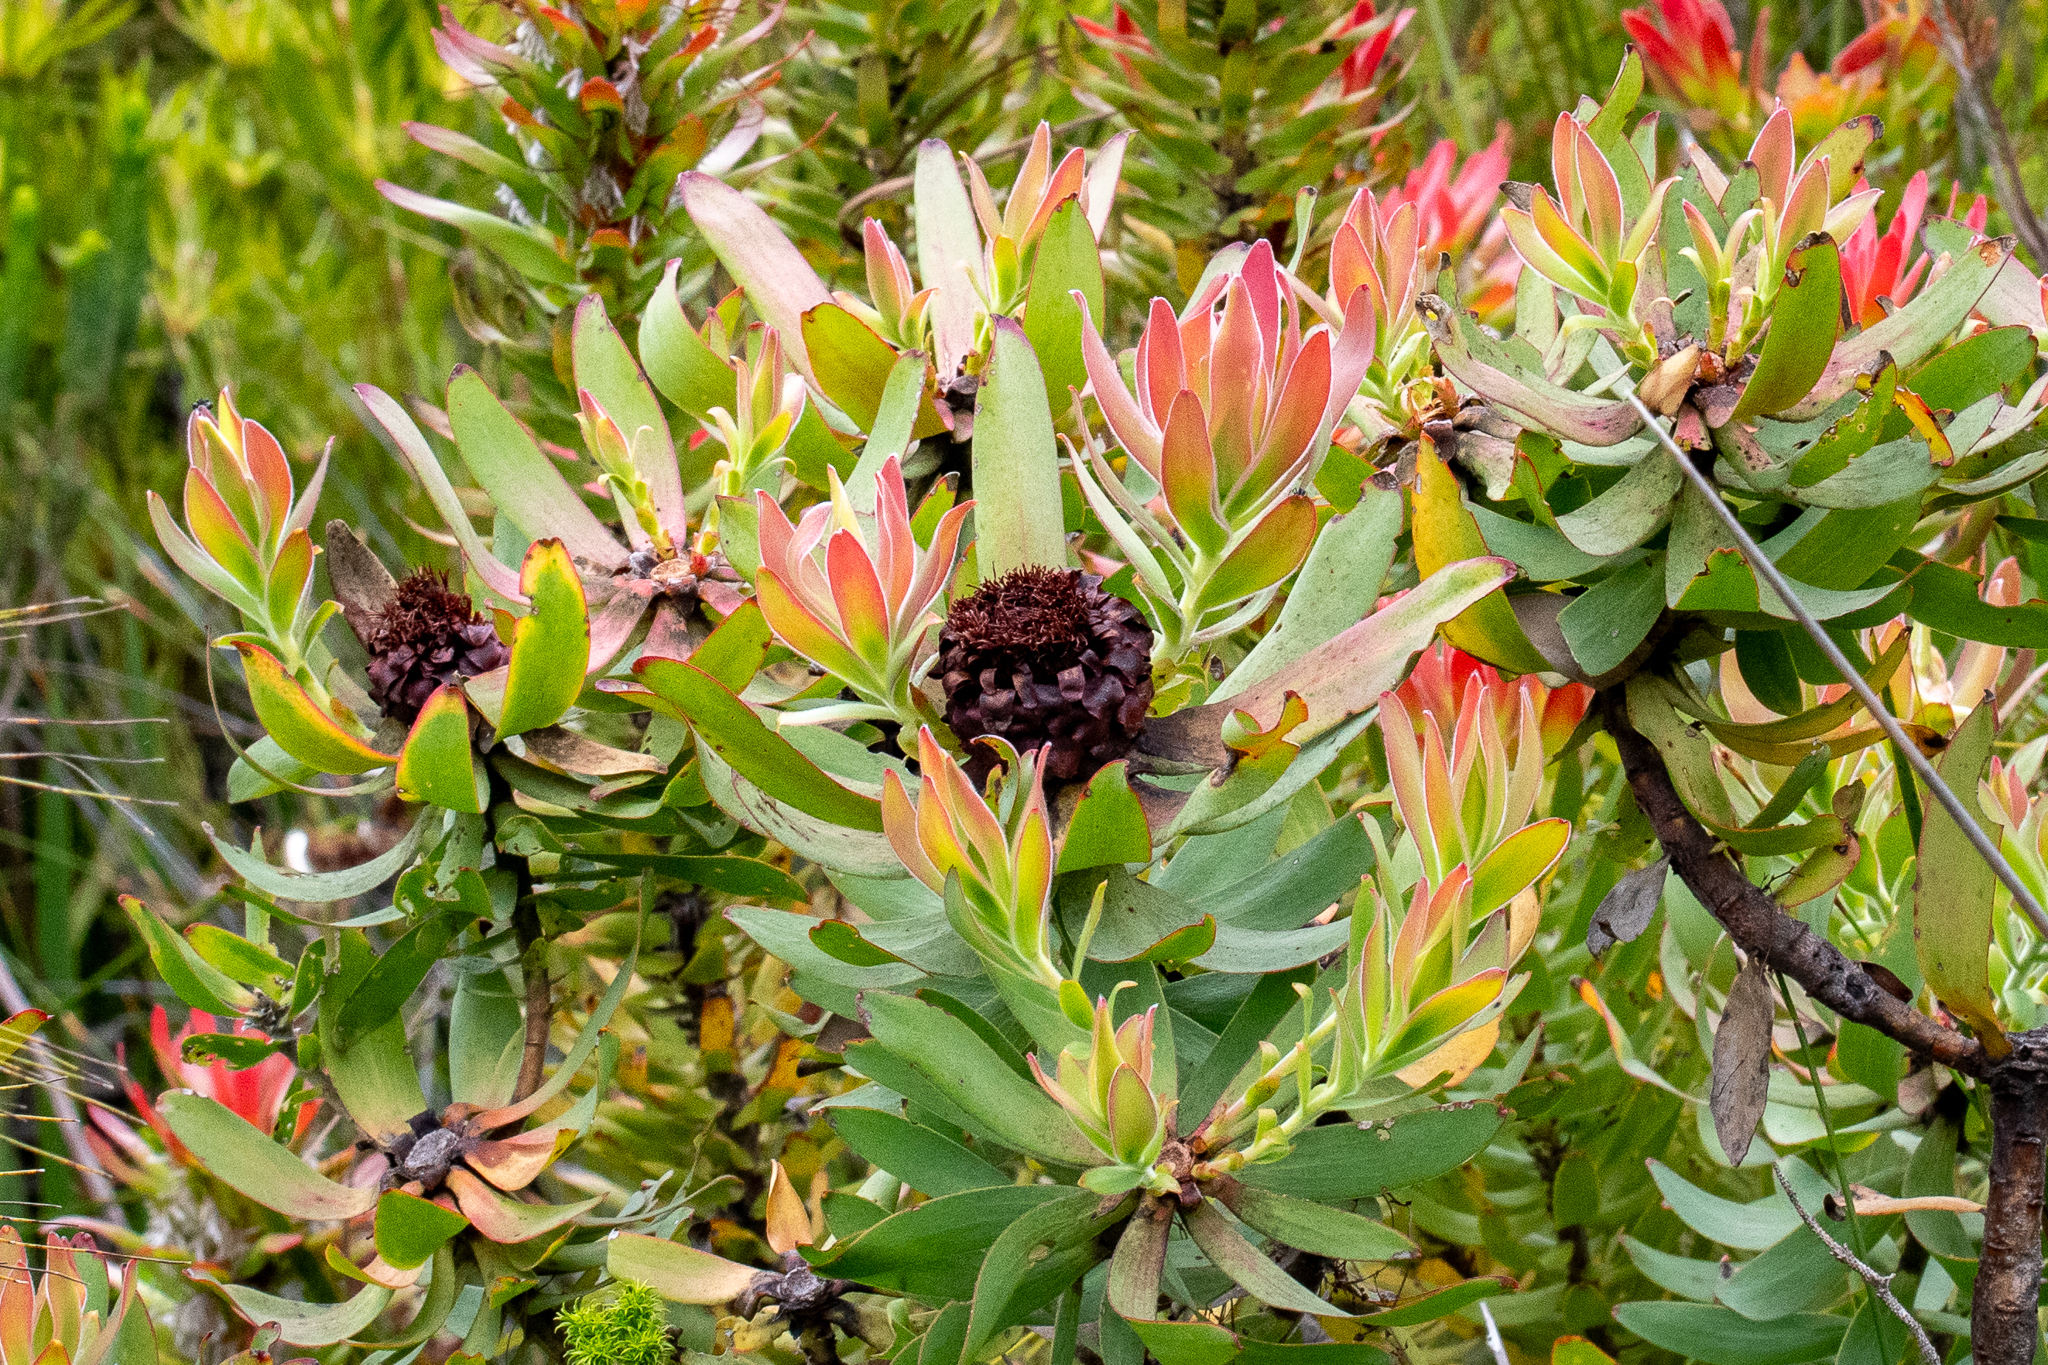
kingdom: Plantae
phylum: Tracheophyta
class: Magnoliopsida
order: Proteales
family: Proteaceae
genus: Leucadendron
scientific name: Leucadendron tinctum
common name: Spicy conebush
